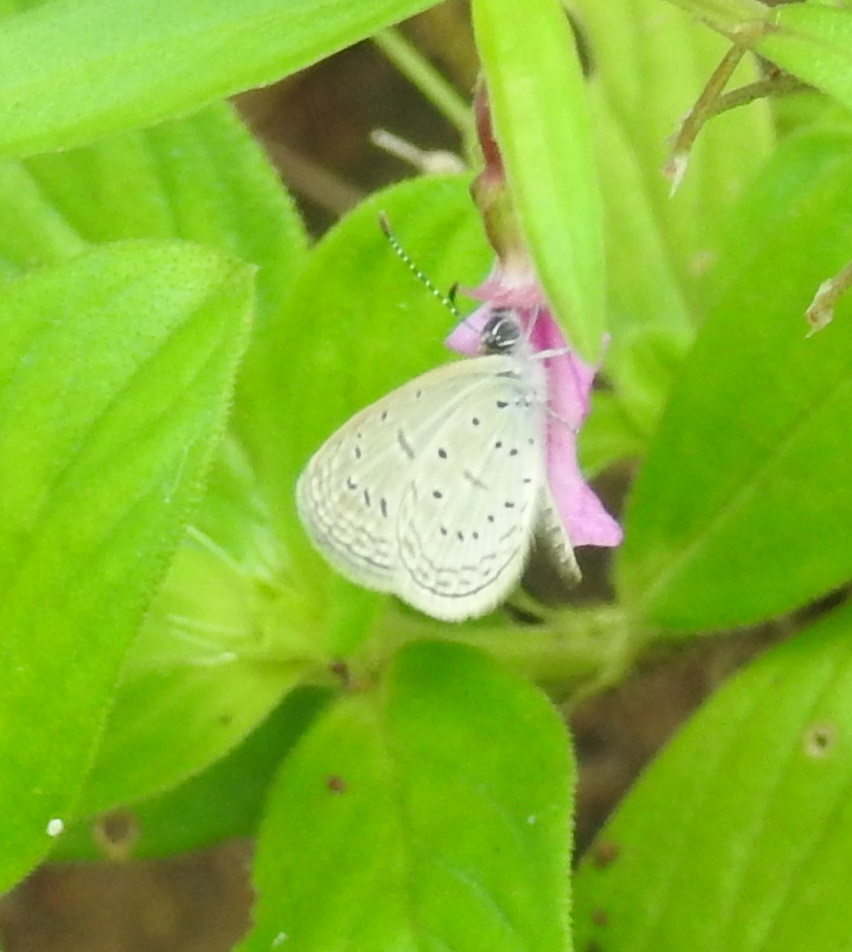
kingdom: Animalia
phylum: Arthropoda
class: Insecta
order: Lepidoptera
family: Lycaenidae
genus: Zizula
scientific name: Zizula hylax
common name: Gaika blue
